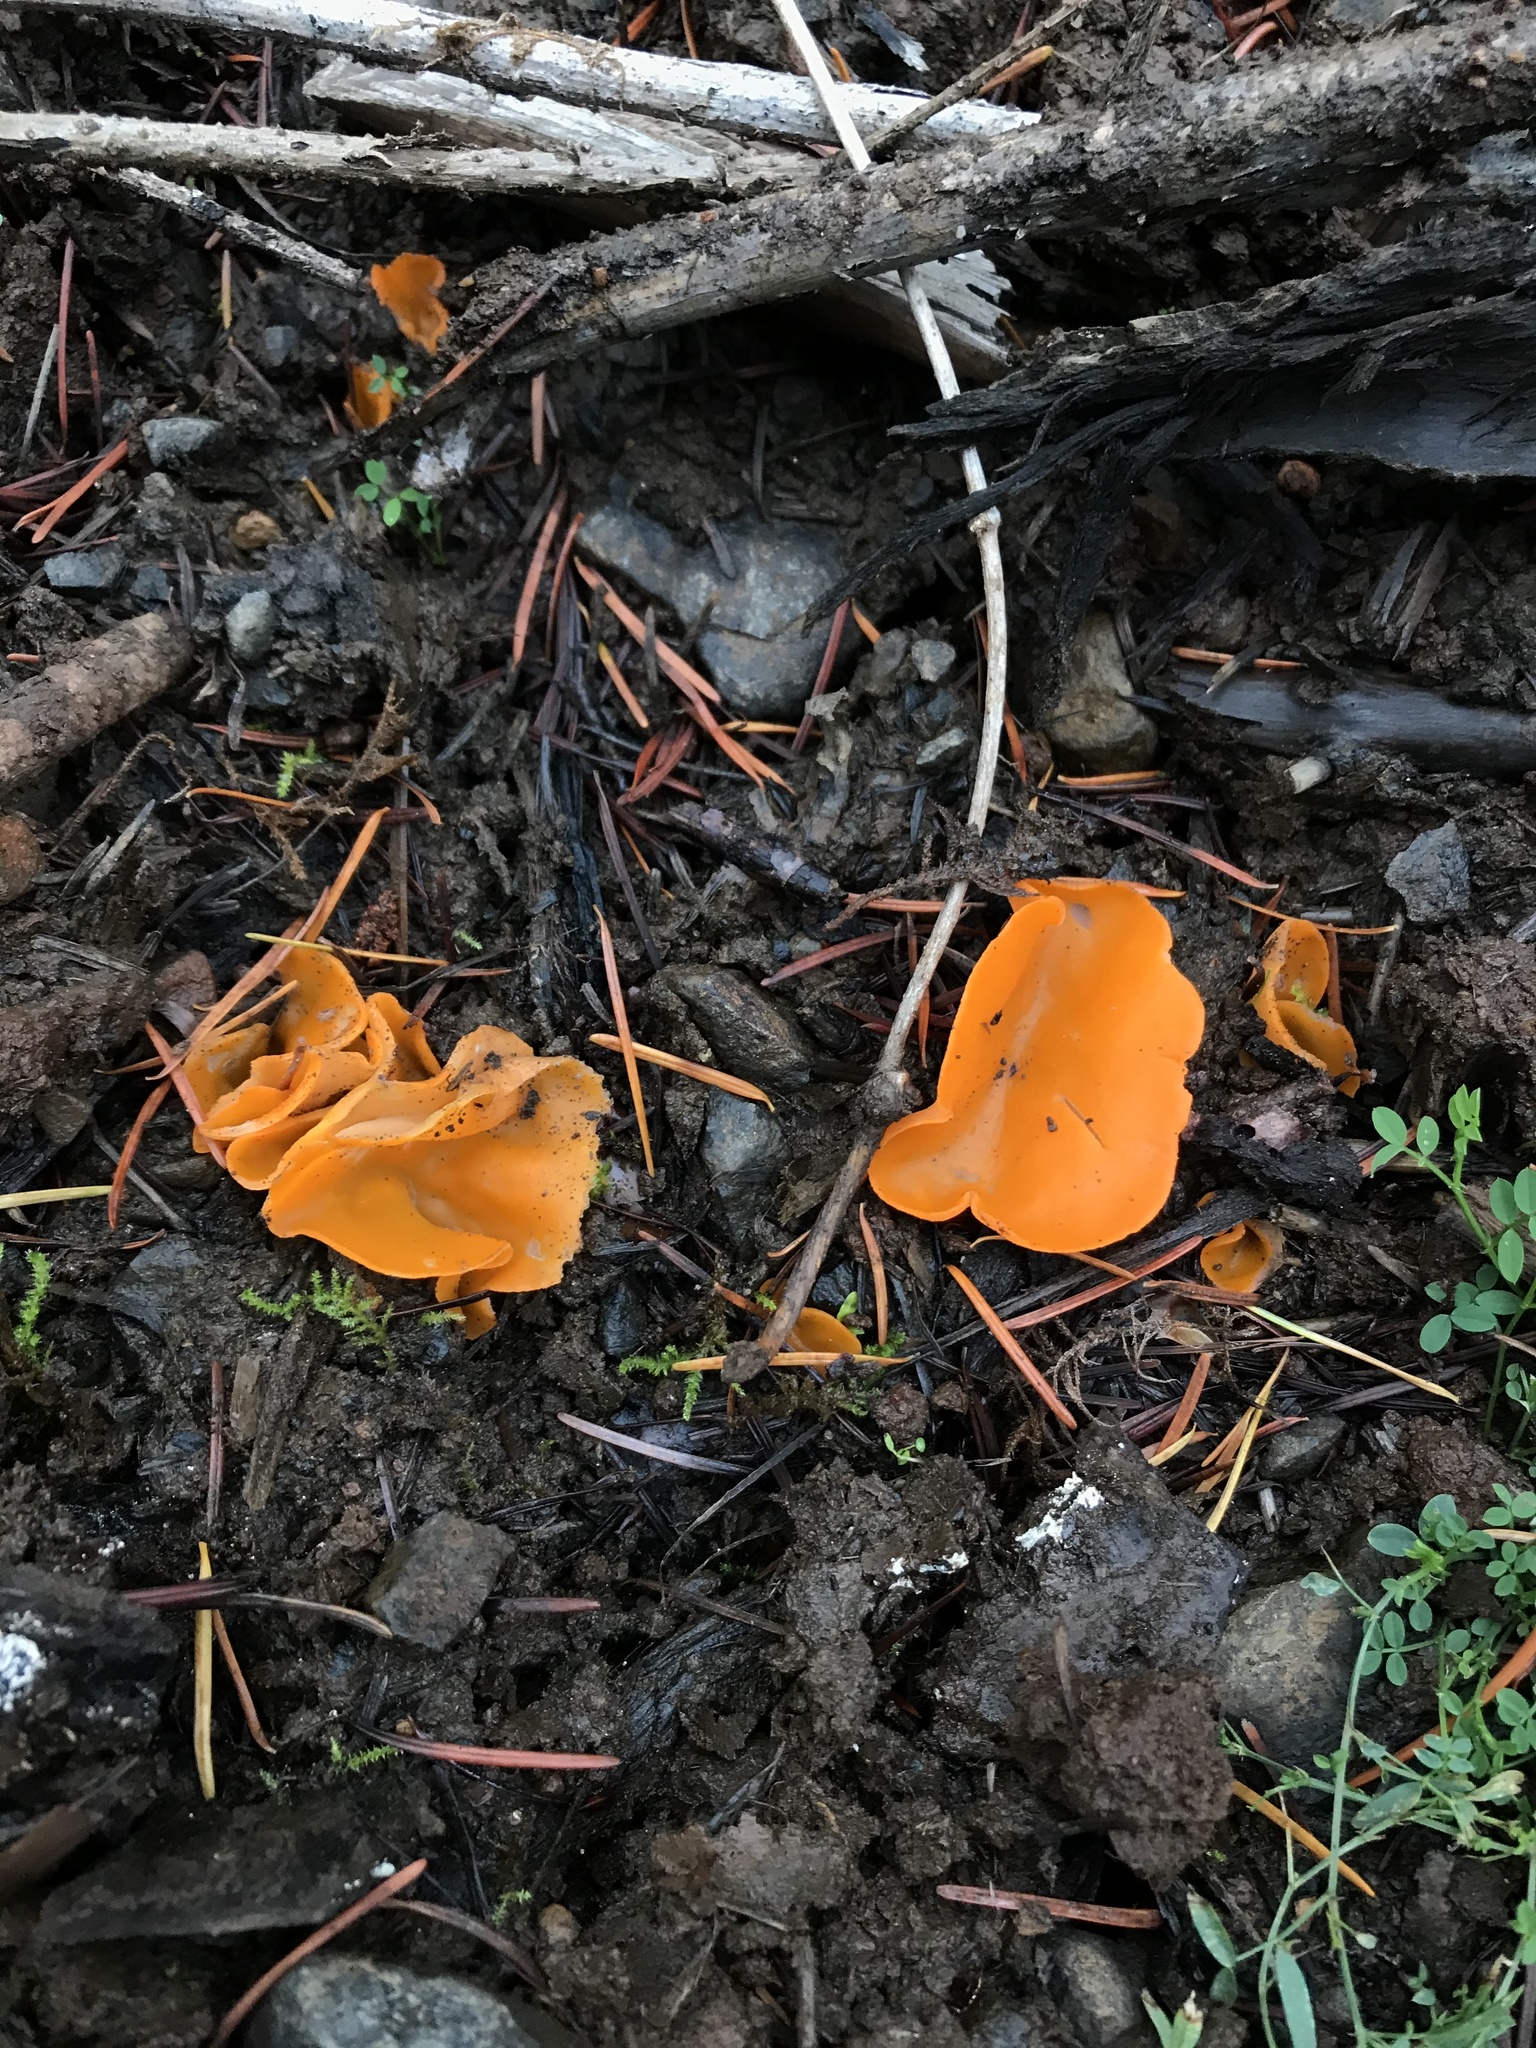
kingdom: Fungi
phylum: Ascomycota
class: Pezizomycetes
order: Pezizales
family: Pyronemataceae
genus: Aleuria
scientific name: Aleuria aurantia
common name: Orange peel fungus
